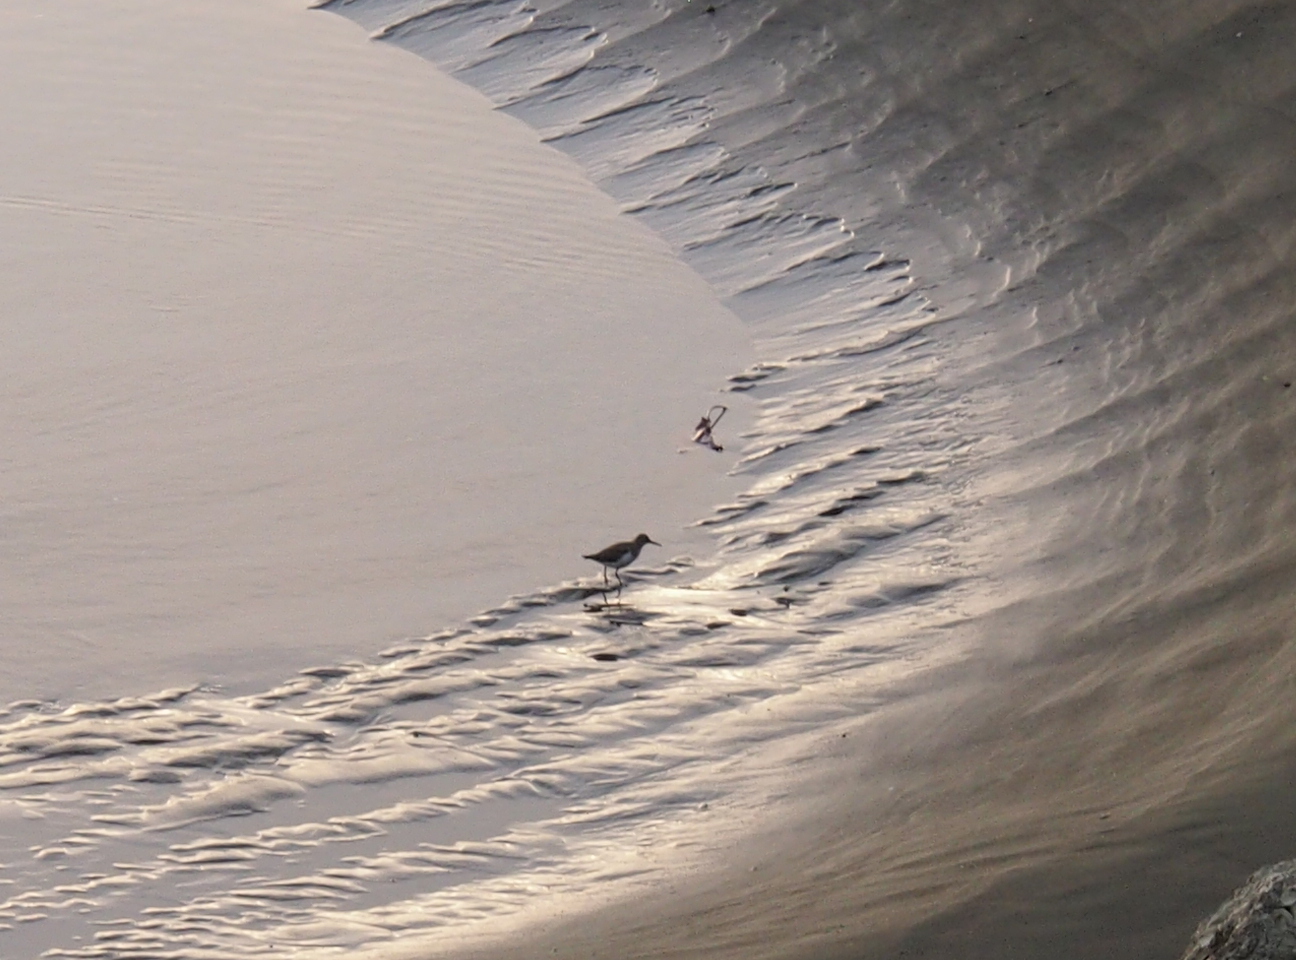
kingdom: Animalia
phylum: Chordata
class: Aves
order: Charadriiformes
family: Scolopacidae
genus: Actitis
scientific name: Actitis macularius
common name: Spotted sandpiper
